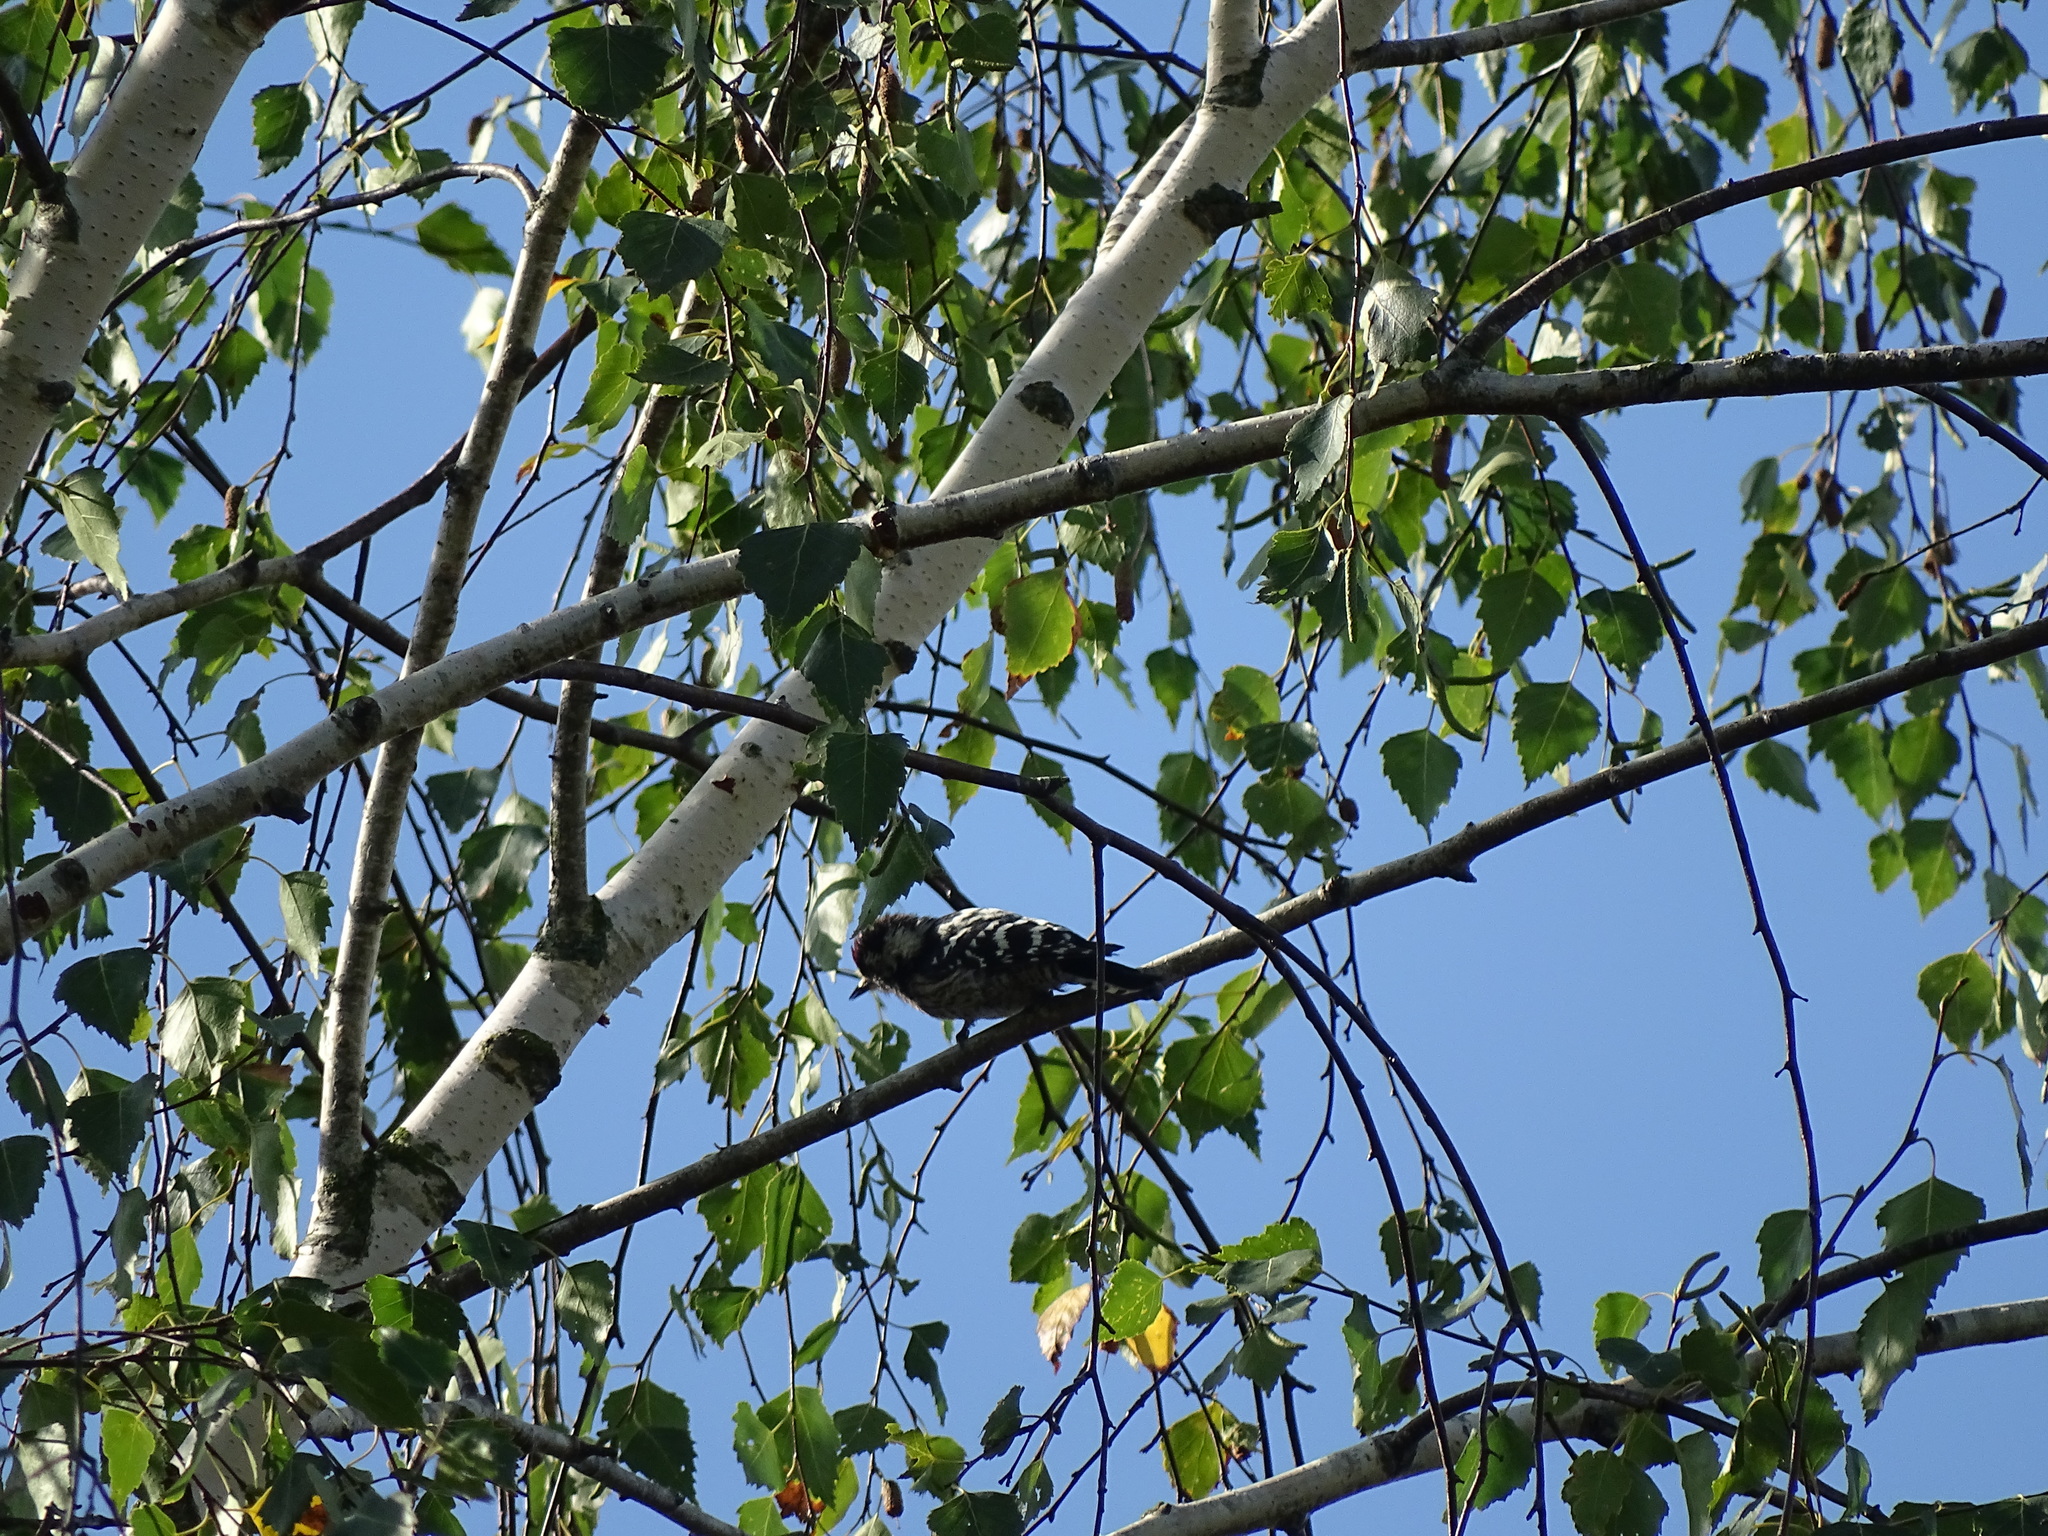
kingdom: Animalia
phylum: Chordata
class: Aves
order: Piciformes
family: Picidae
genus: Dryobates
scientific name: Dryobates minor
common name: Lesser spotted woodpecker
